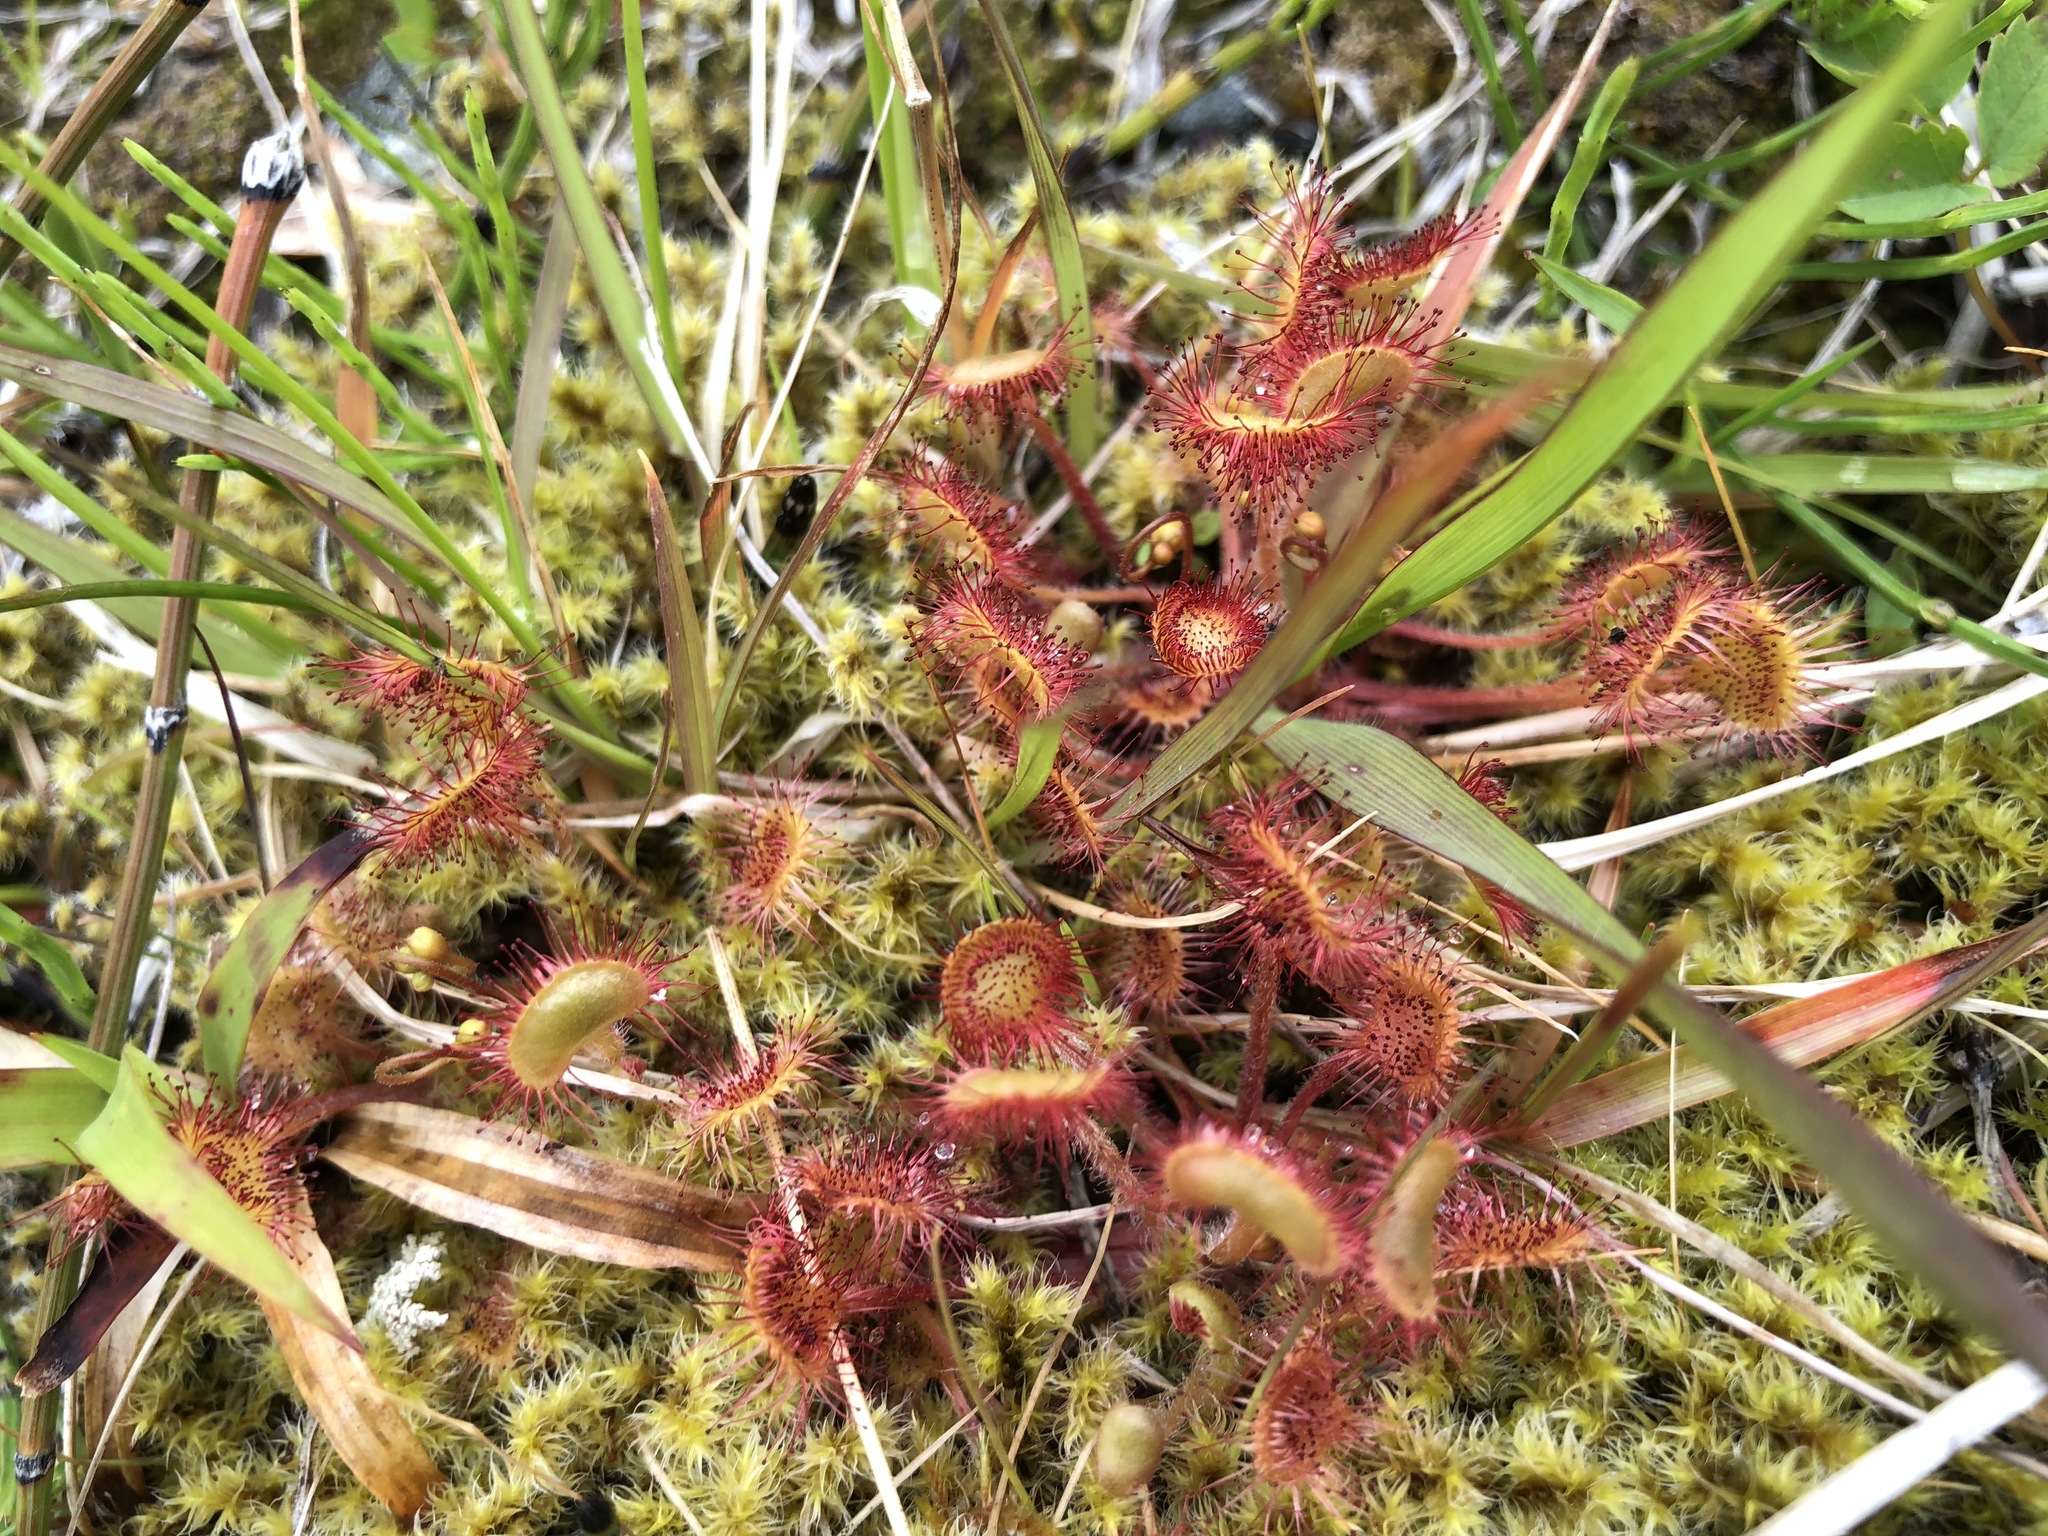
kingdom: Plantae
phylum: Tracheophyta
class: Magnoliopsida
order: Caryophyllales
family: Droseraceae
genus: Drosera
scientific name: Drosera rotundifolia
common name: Round-leaved sundew
